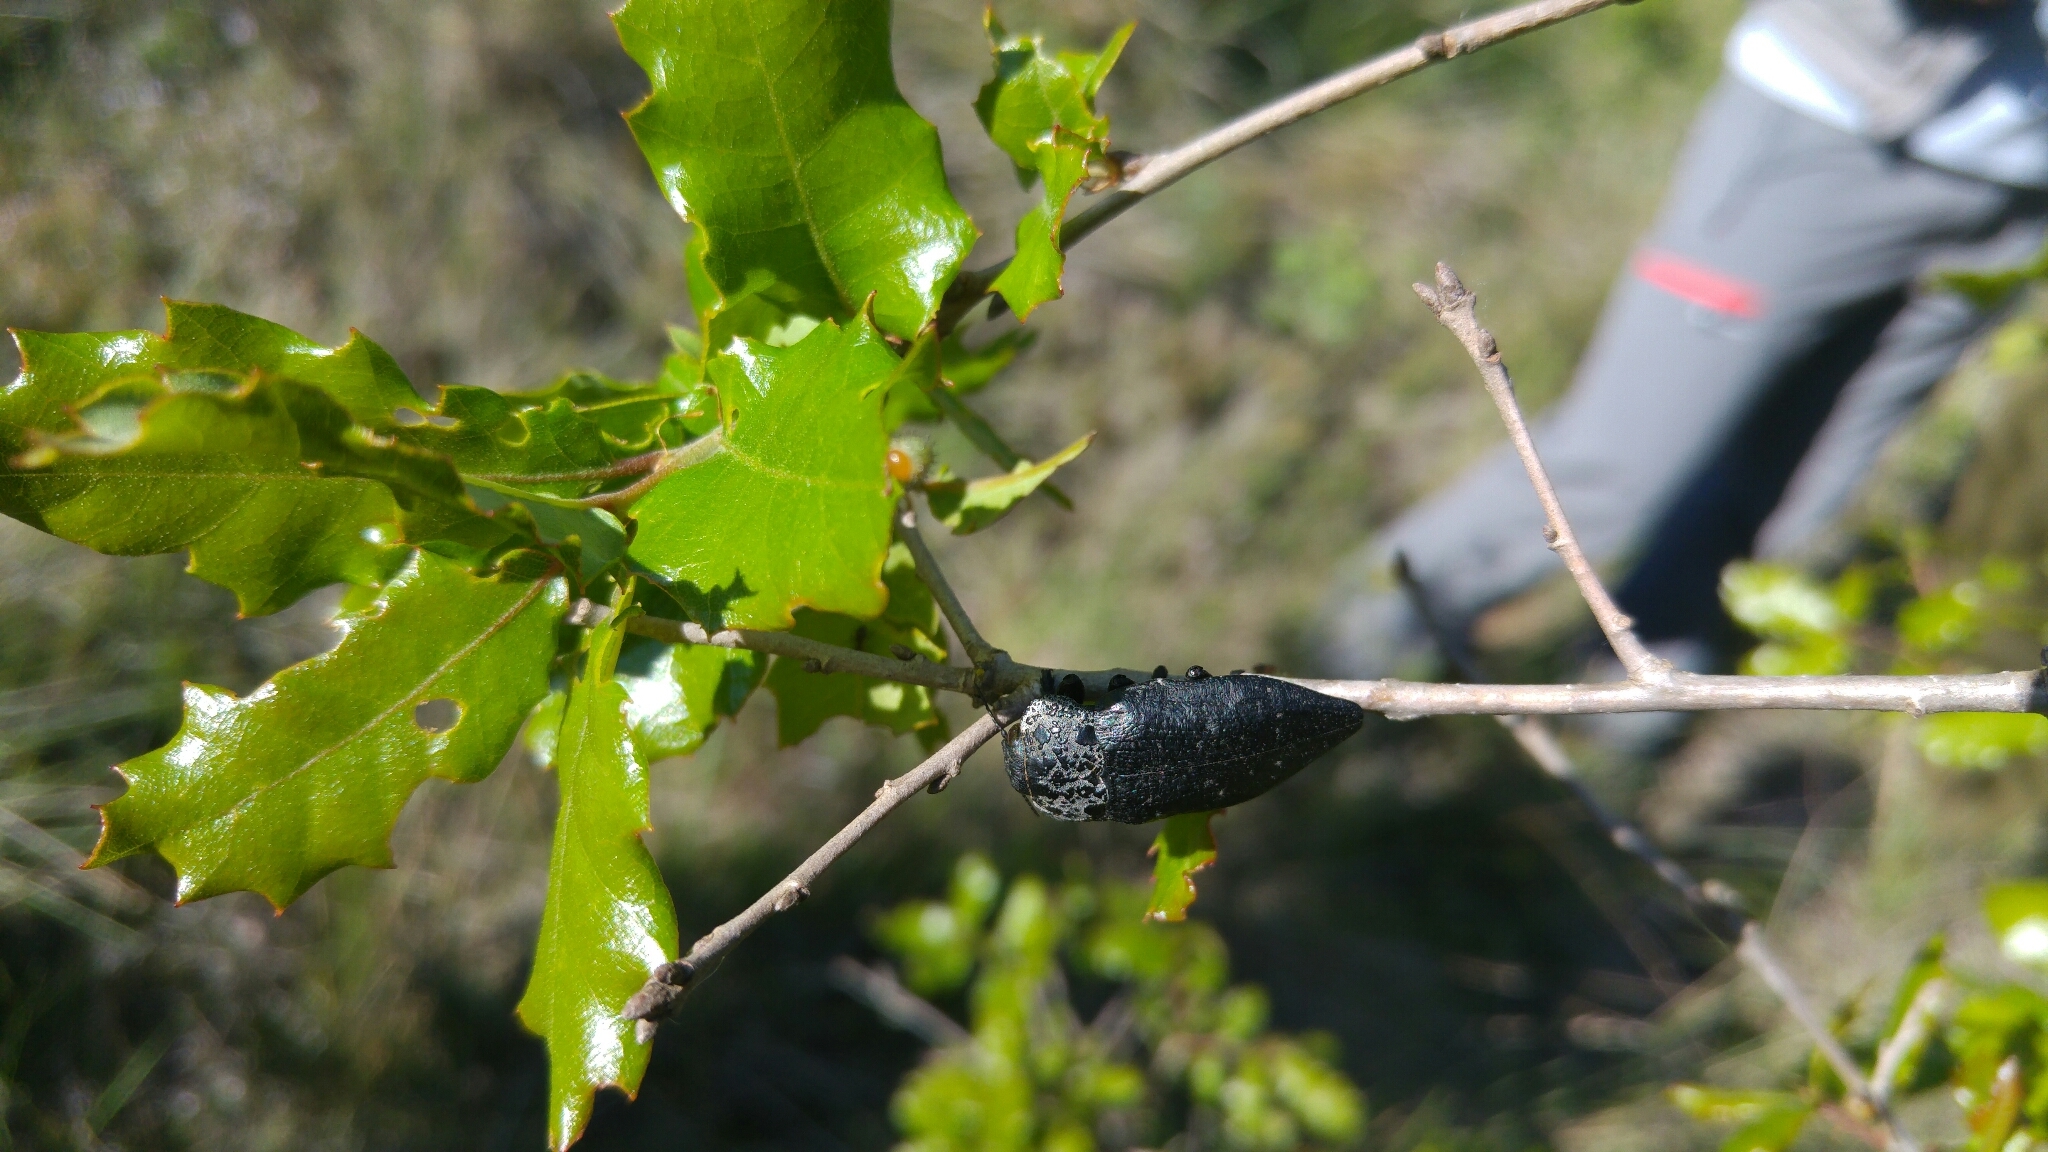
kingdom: Animalia
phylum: Arthropoda
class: Insecta
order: Coleoptera
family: Buprestidae
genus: Capnodis
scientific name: Capnodis tenebrionis
